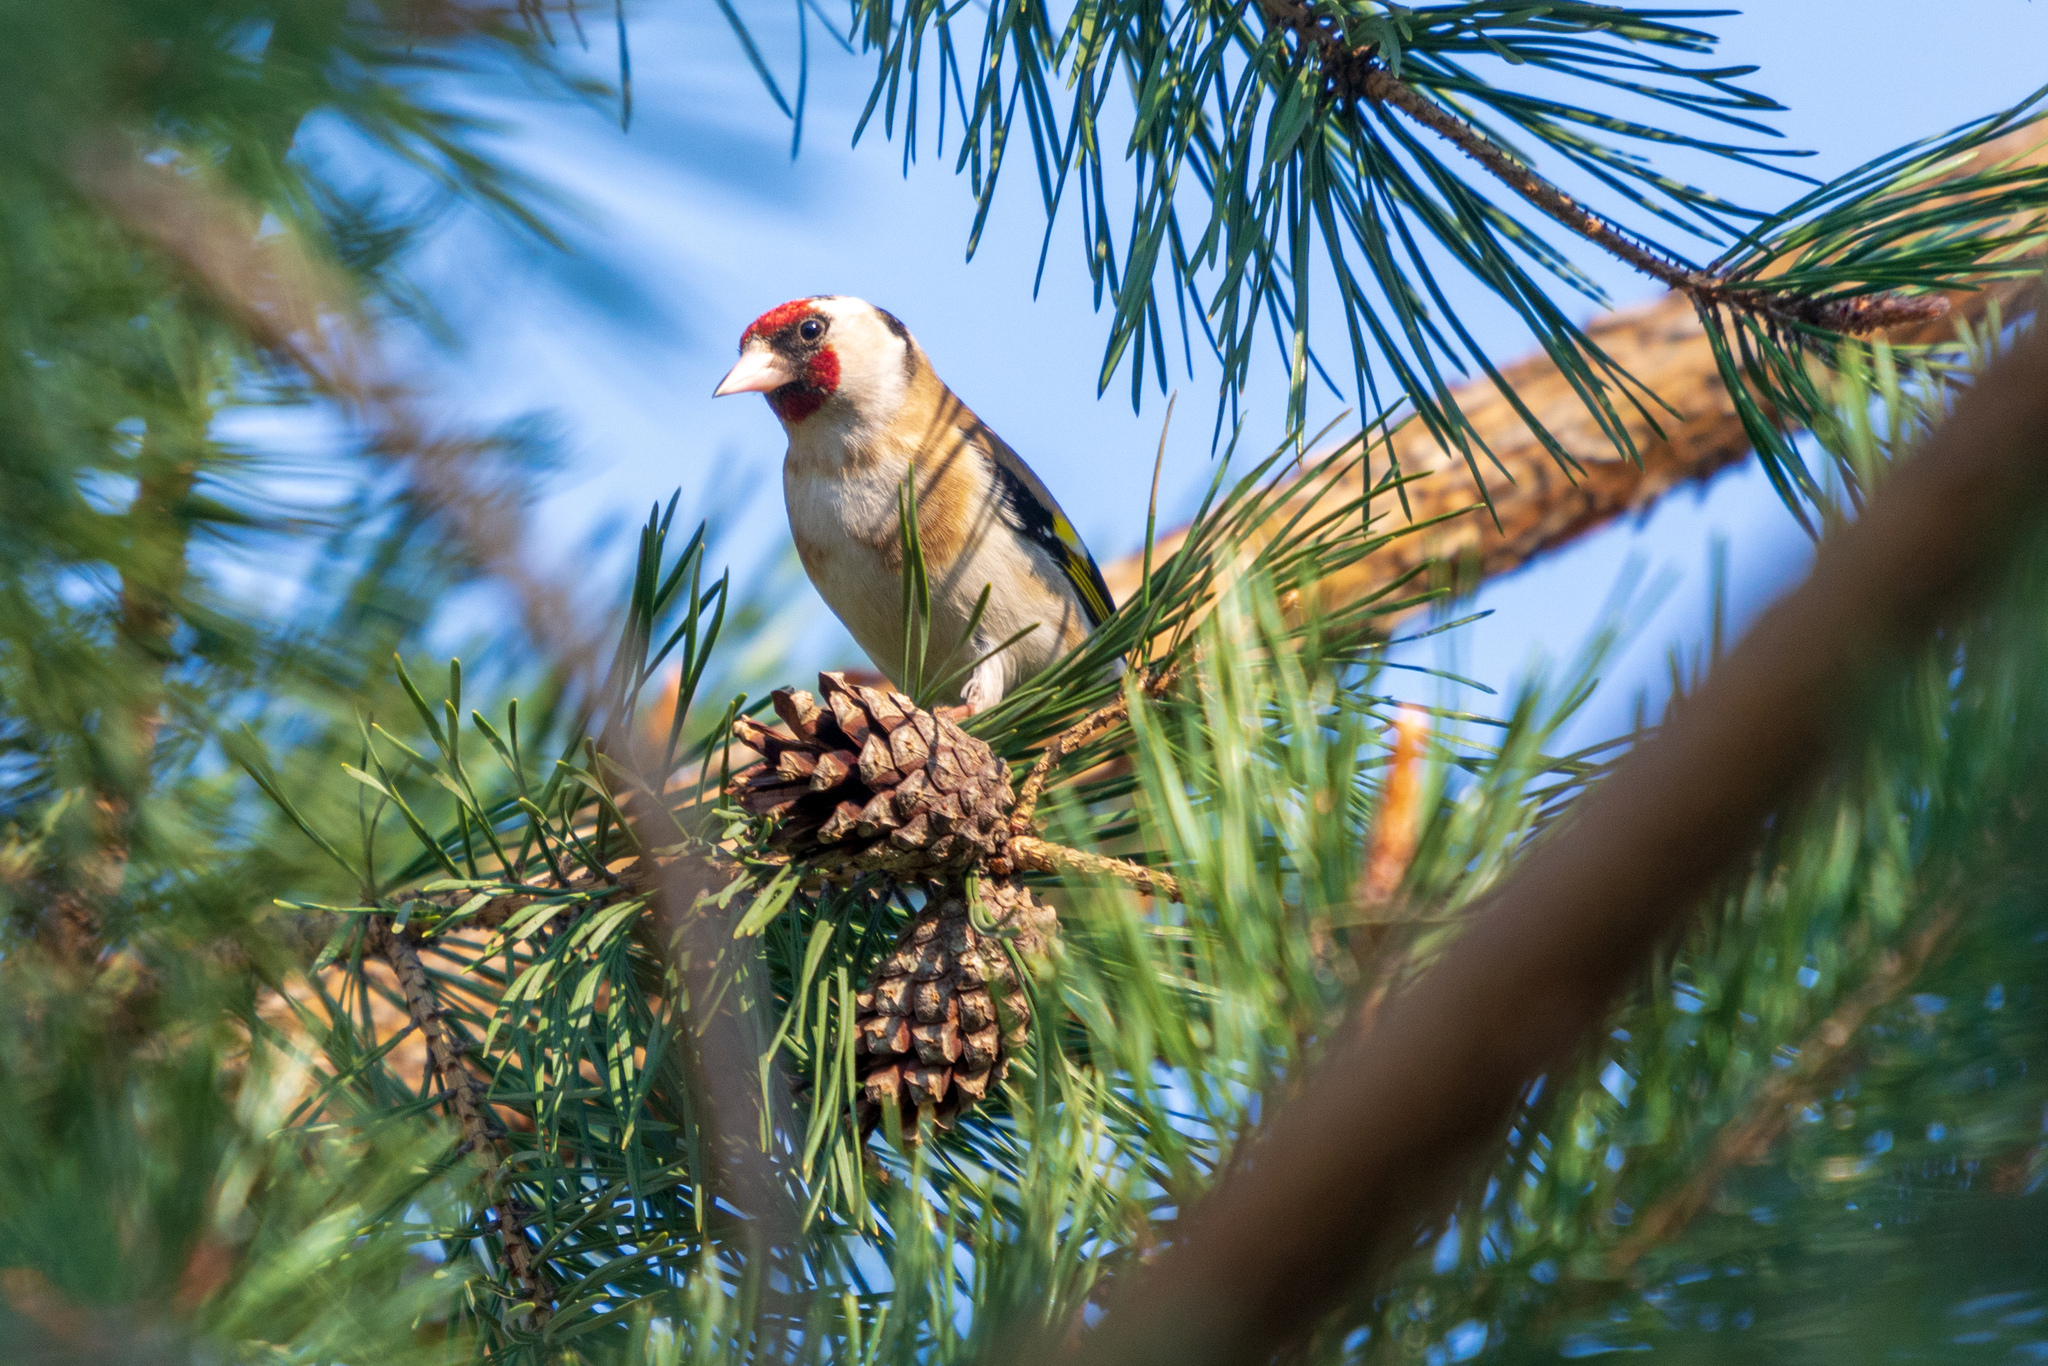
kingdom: Animalia
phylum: Chordata
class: Aves
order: Passeriformes
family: Fringillidae
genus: Carduelis
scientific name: Carduelis carduelis
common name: European goldfinch
